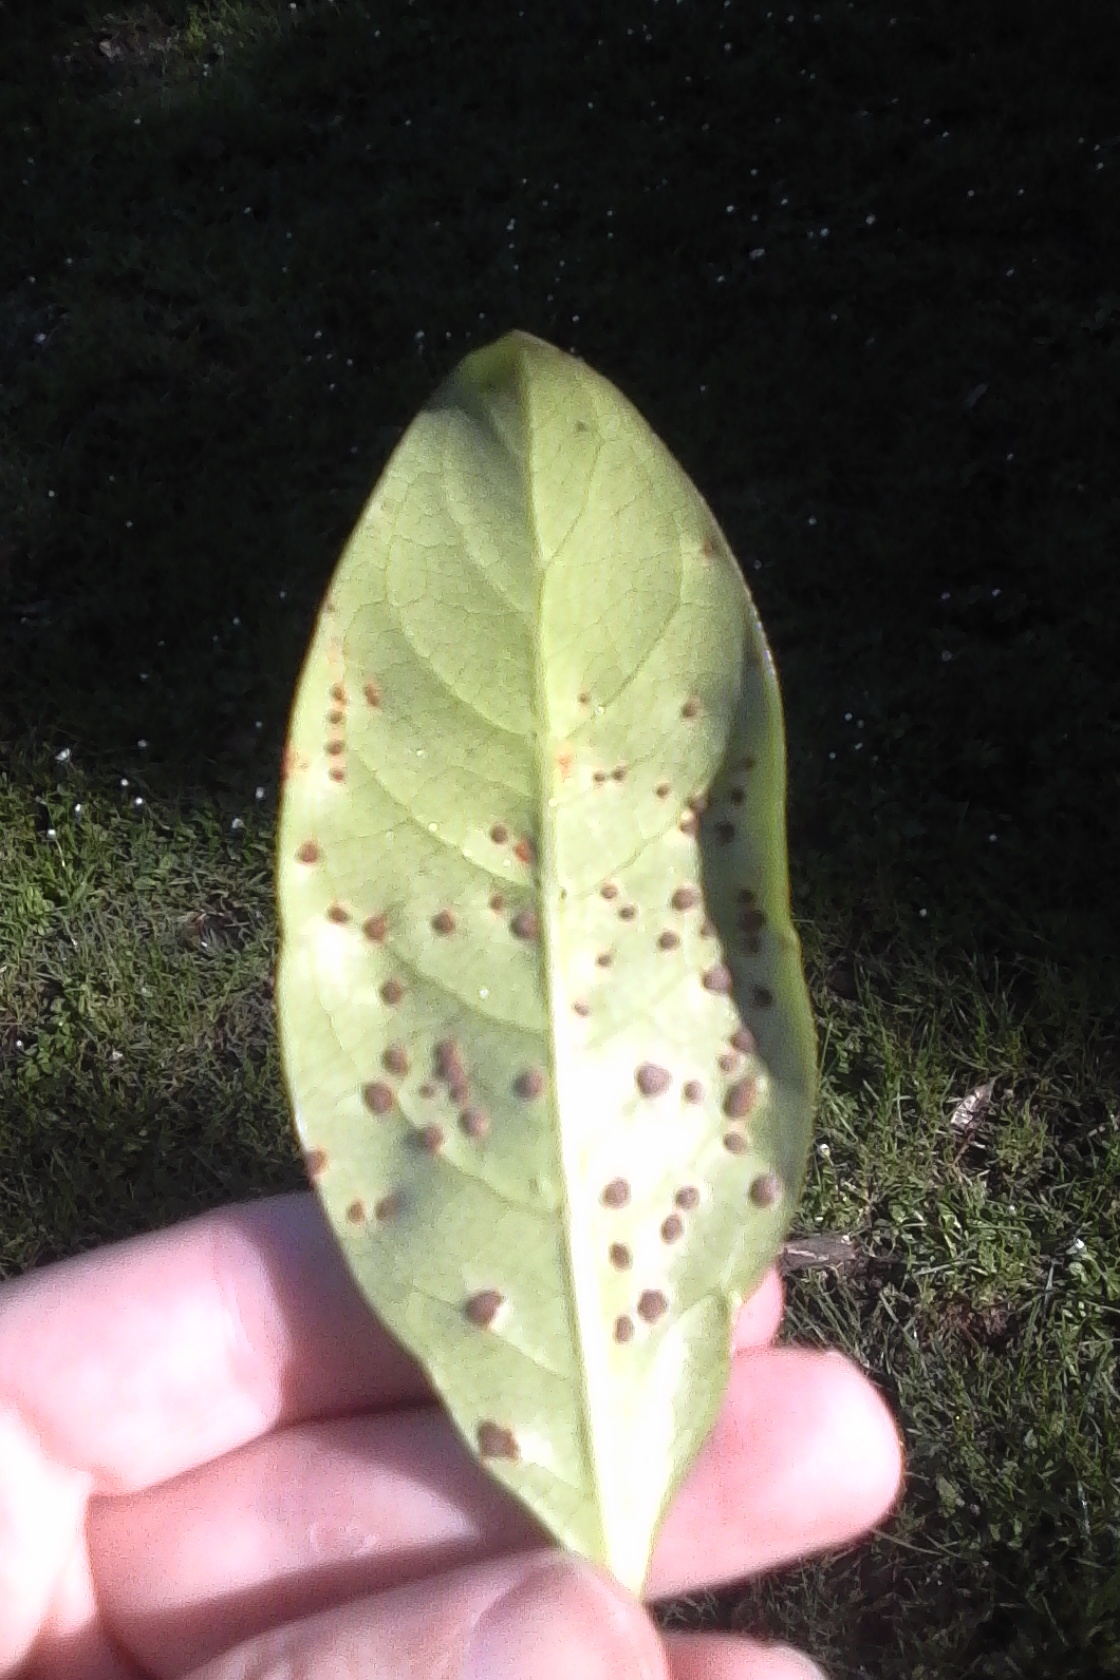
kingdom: Fungi
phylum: Basidiomycota
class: Pucciniomycetes
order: Pucciniales
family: Pucciniaceae
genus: Puccinia
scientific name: Puccinia coprosmae
